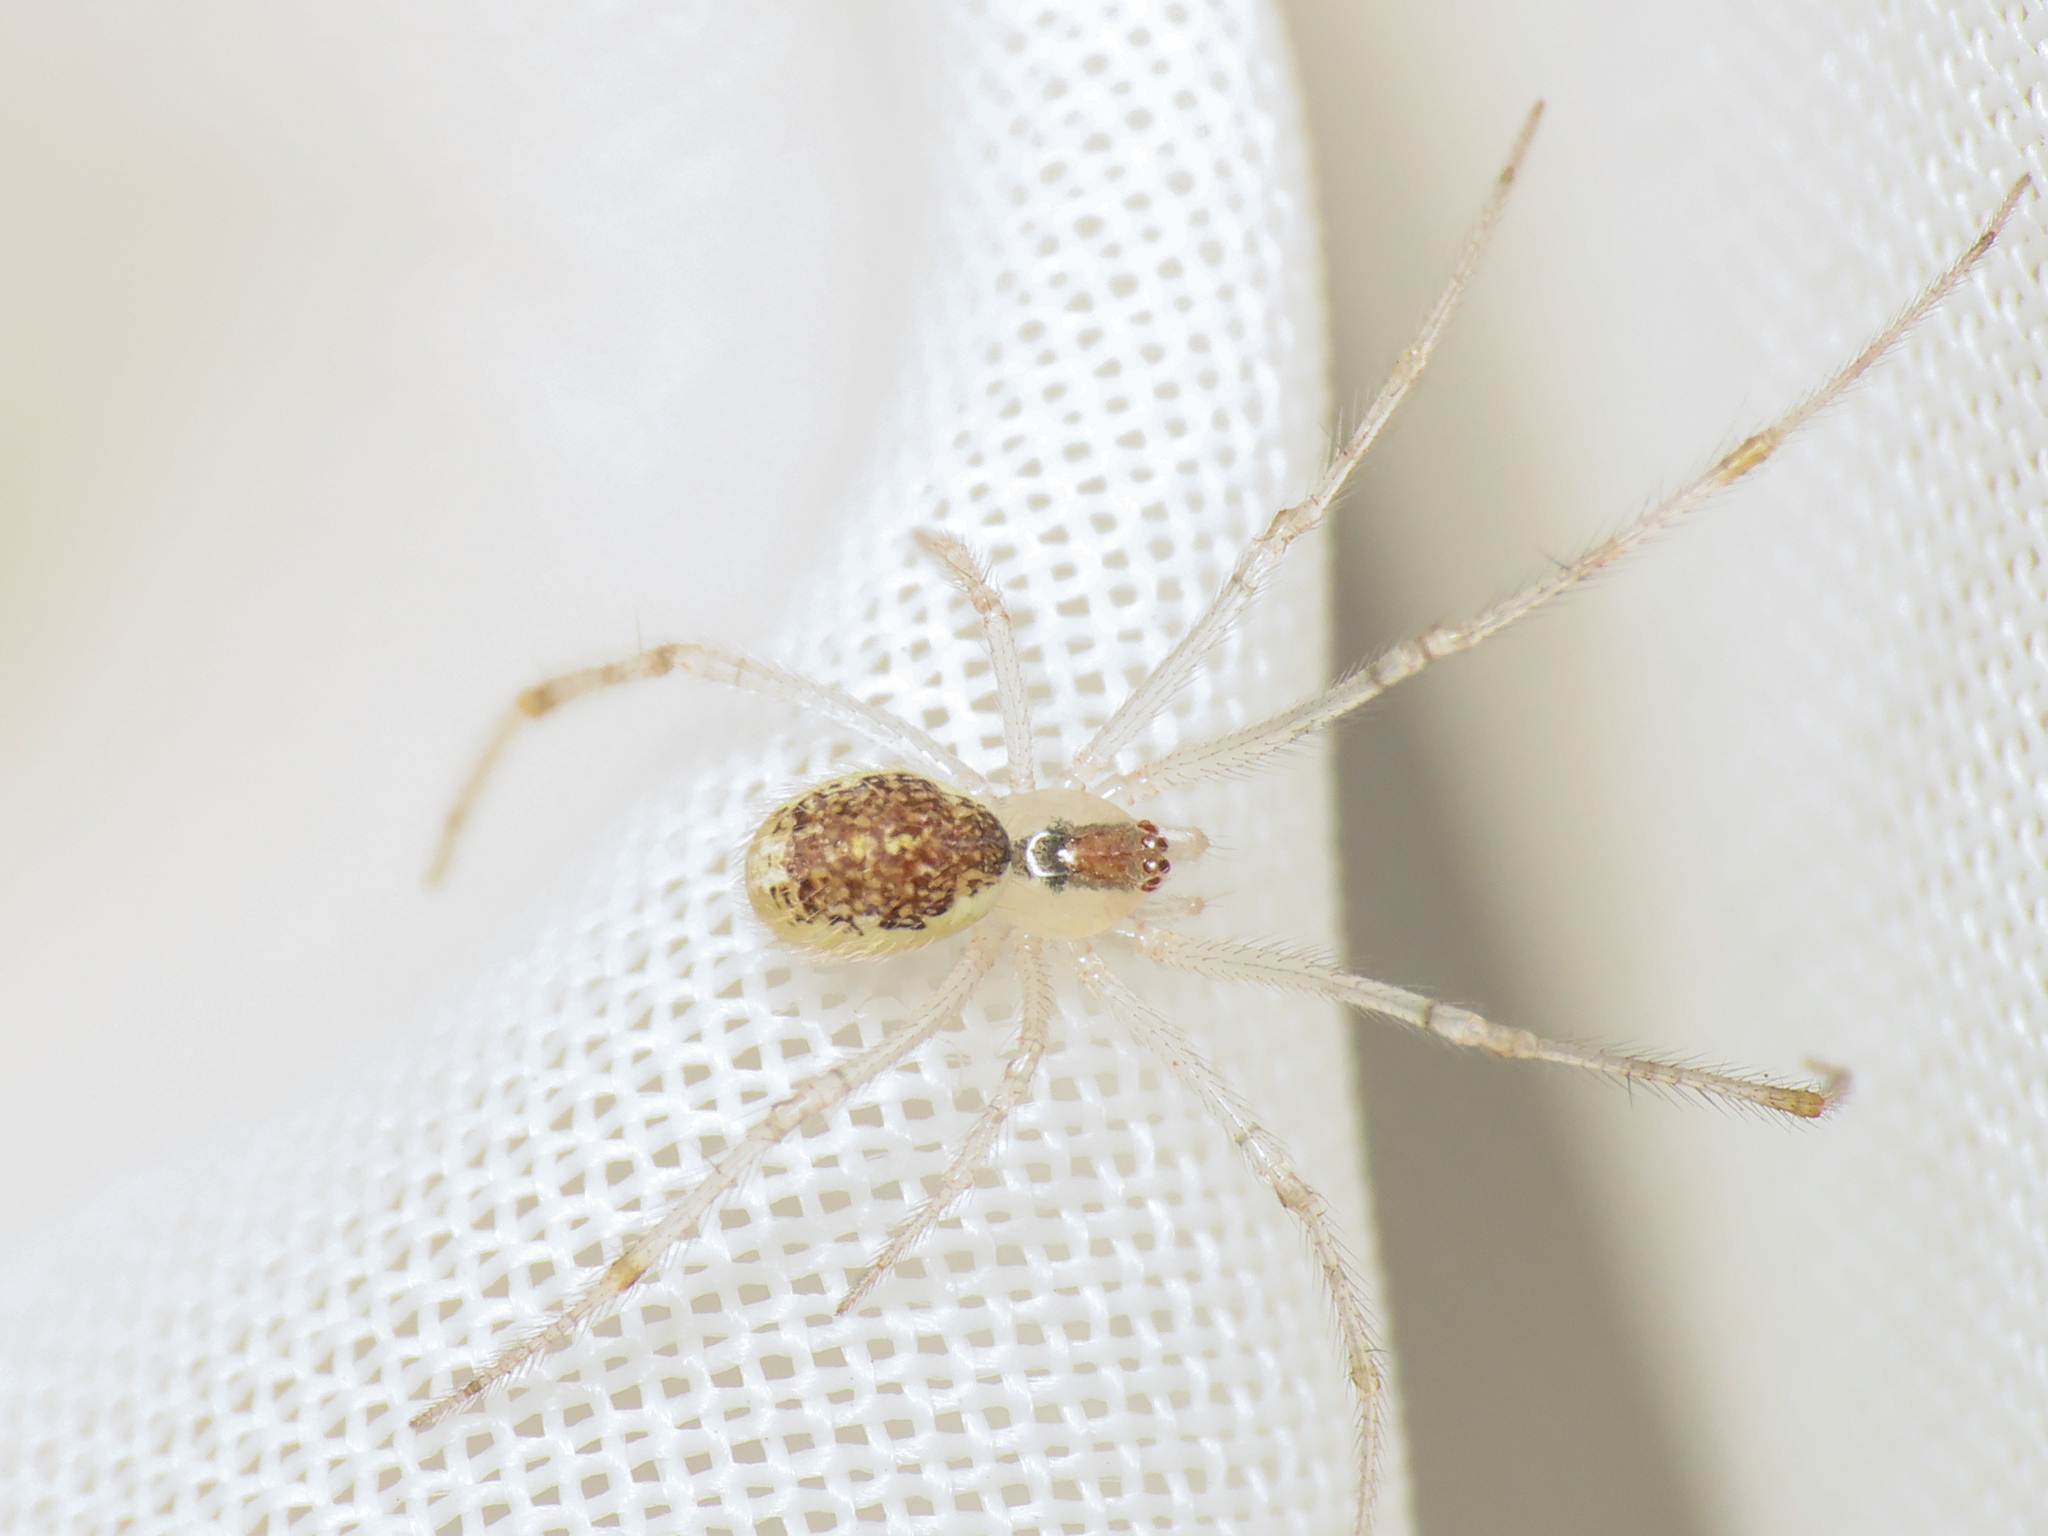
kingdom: Animalia
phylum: Arthropoda
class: Arachnida
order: Araneae
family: Theridiidae
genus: Theridion
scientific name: Theridion varians
